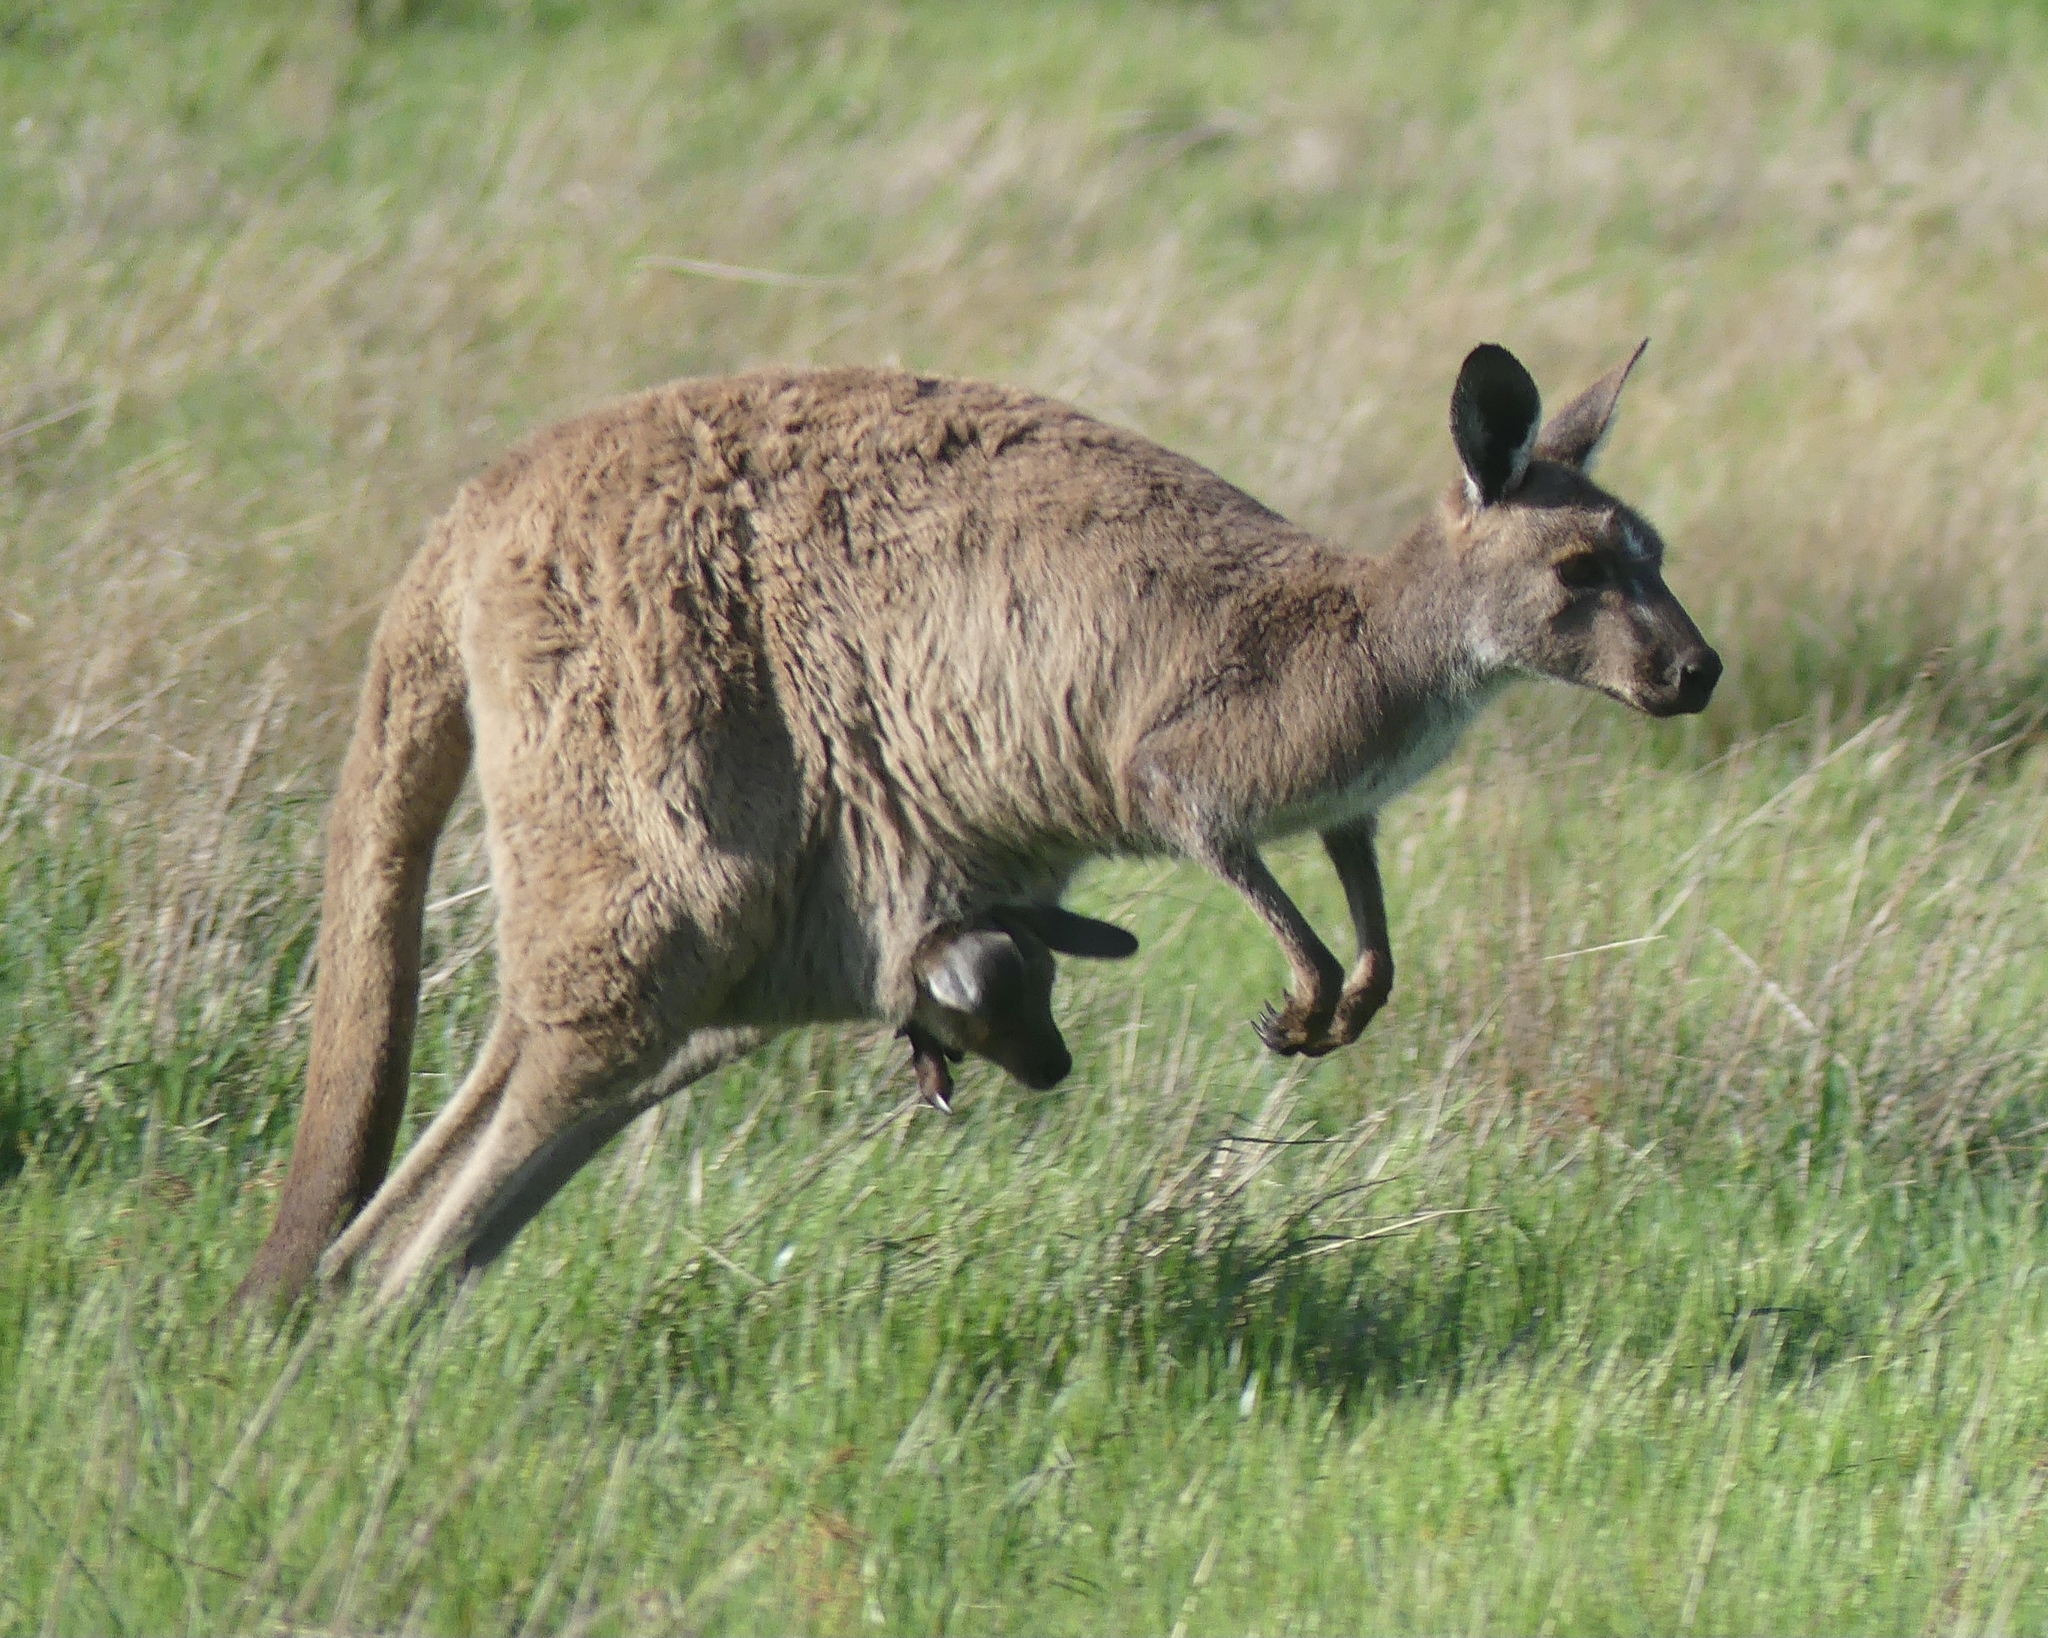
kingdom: Animalia
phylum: Chordata
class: Mammalia
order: Diprotodontia
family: Macropodidae
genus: Macropus
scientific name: Macropus fuliginosus
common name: Western grey kangaroo
